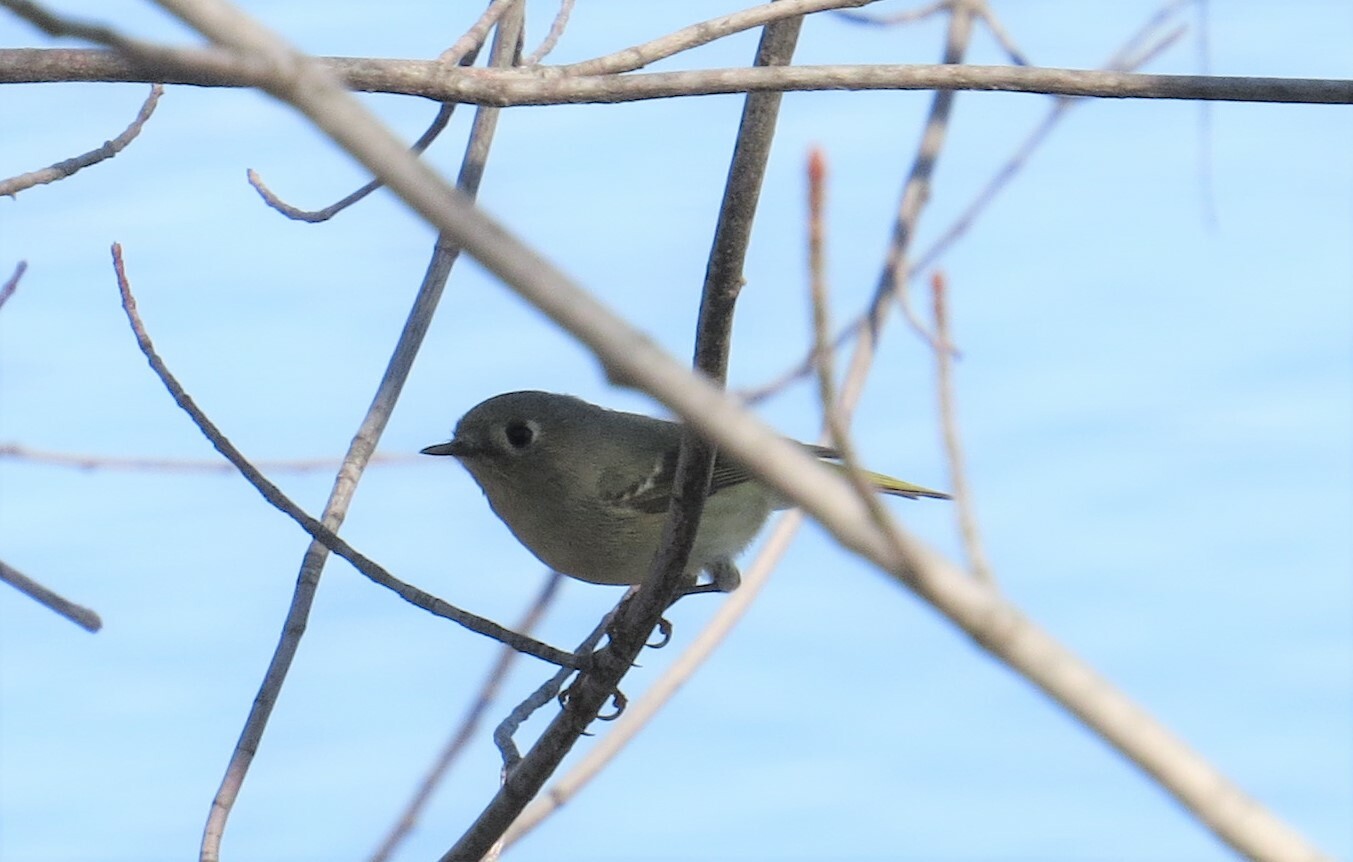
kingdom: Animalia
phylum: Chordata
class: Aves
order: Passeriformes
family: Regulidae
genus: Regulus
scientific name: Regulus calendula
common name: Ruby-crowned kinglet
